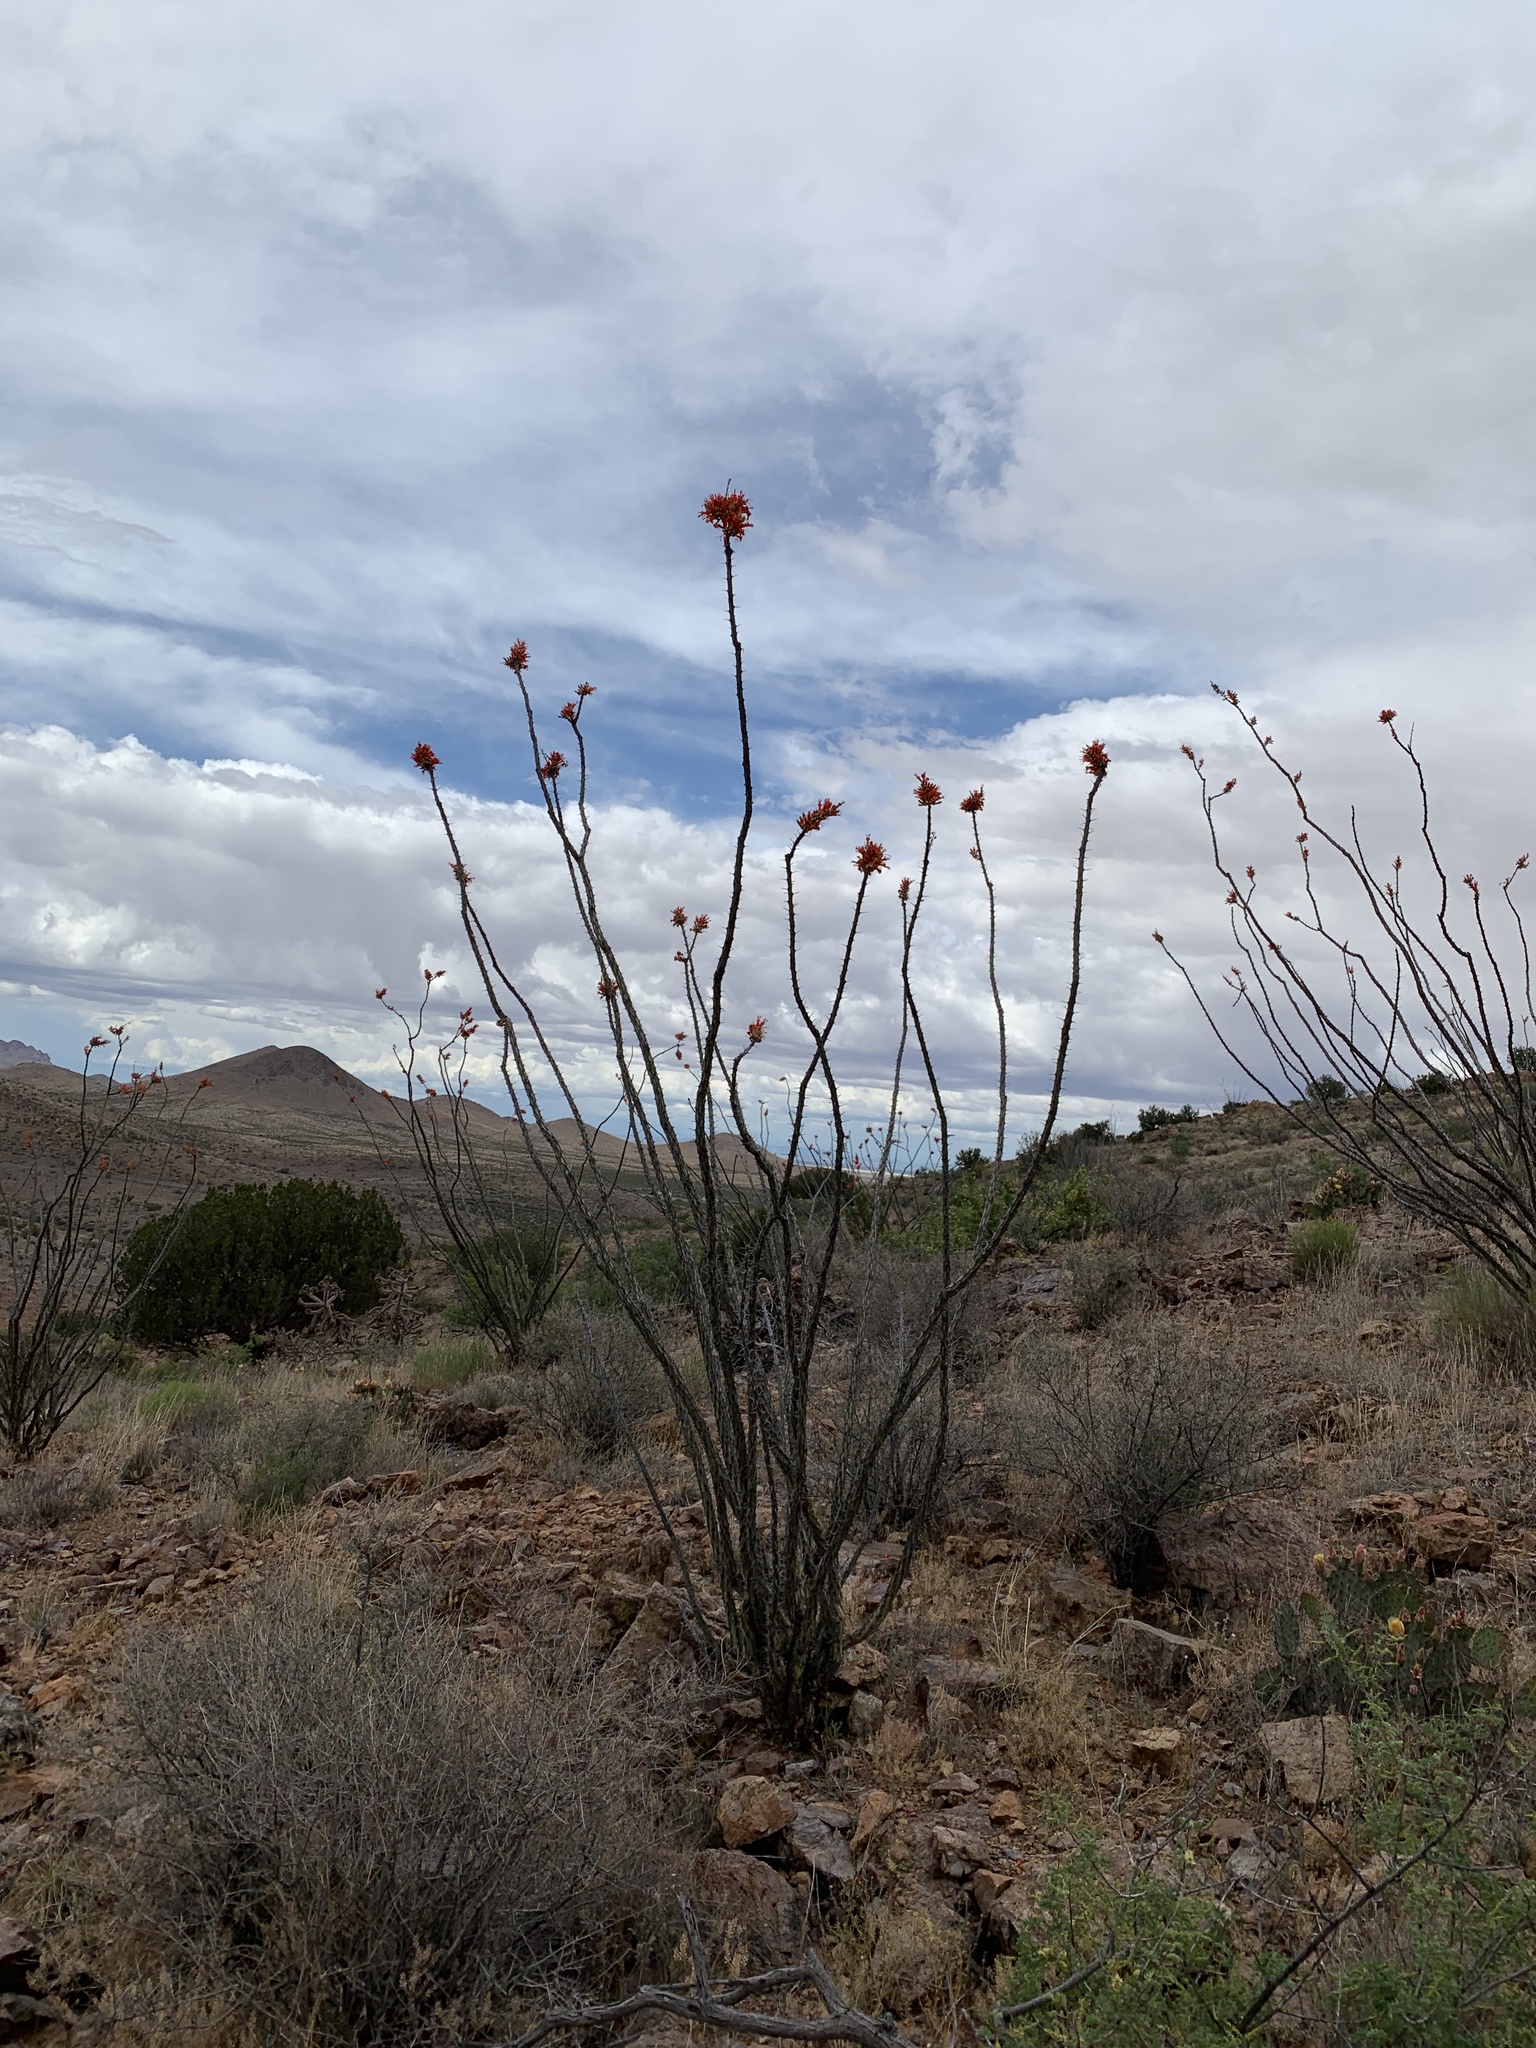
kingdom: Plantae
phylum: Tracheophyta
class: Magnoliopsida
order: Ericales
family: Fouquieriaceae
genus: Fouquieria
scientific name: Fouquieria splendens
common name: Vine-cactus
